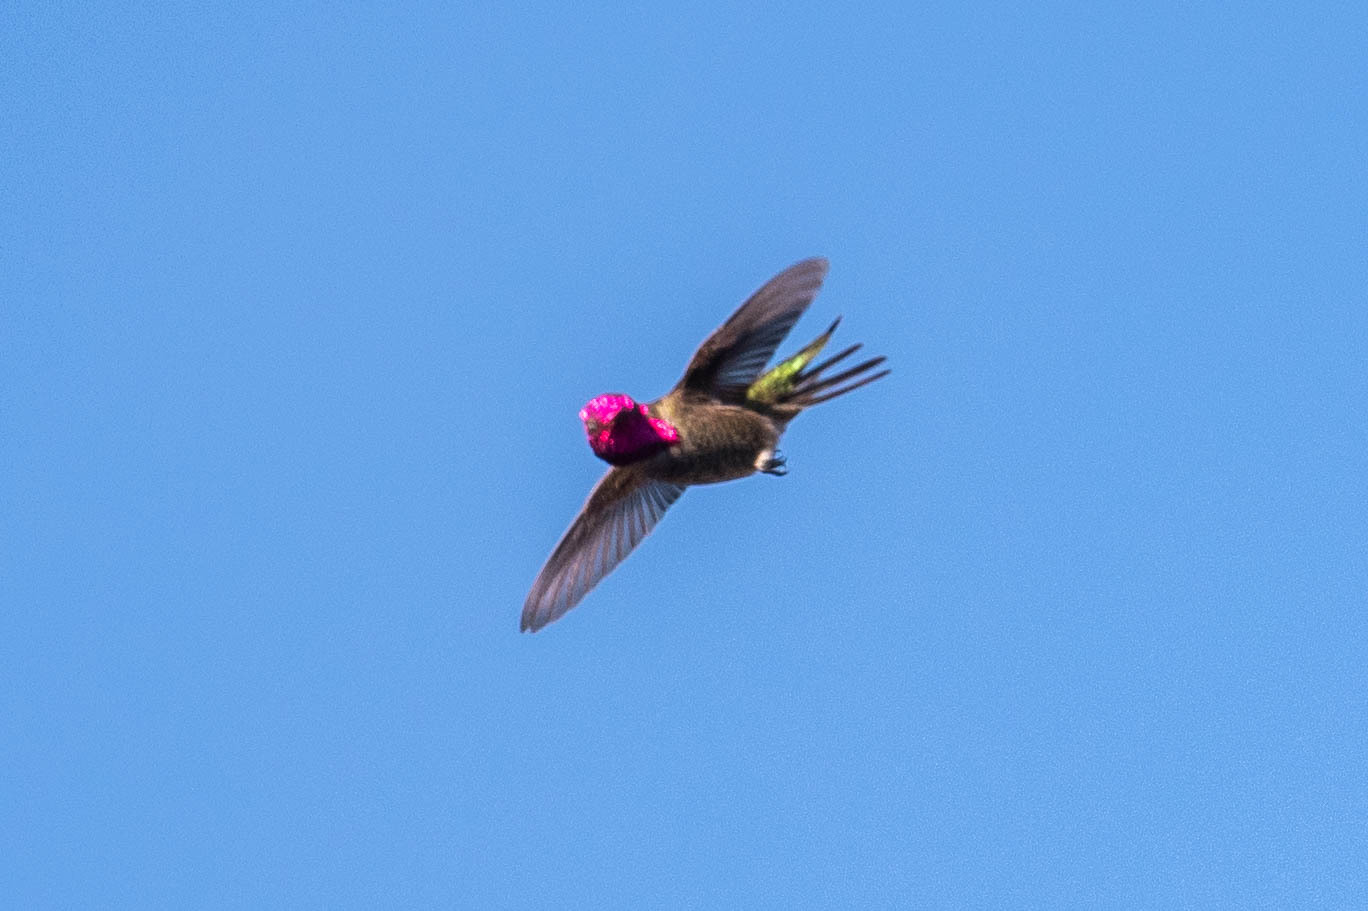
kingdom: Animalia
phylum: Chordata
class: Aves
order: Apodiformes
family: Trochilidae
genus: Calypte
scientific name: Calypte anna
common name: Anna's hummingbird
